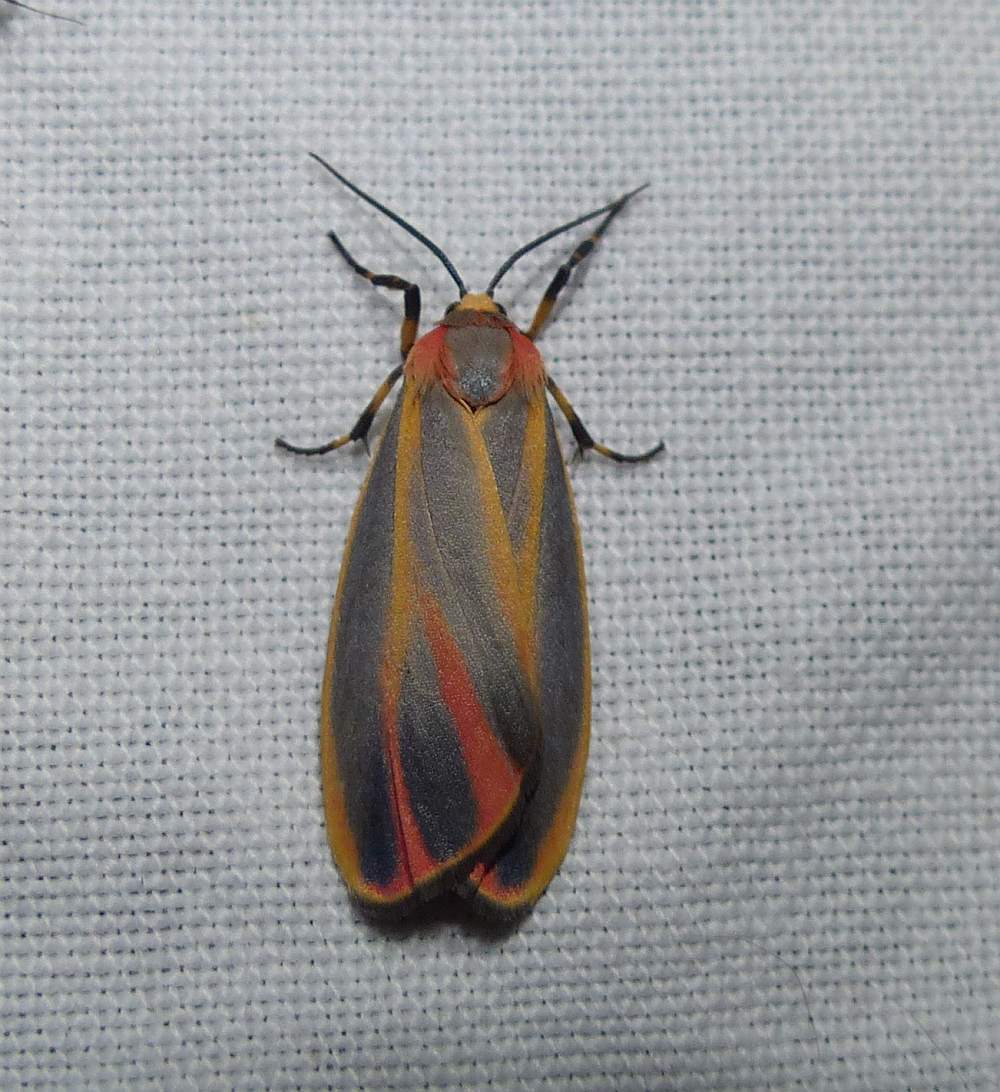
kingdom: Animalia
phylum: Arthropoda
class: Insecta
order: Lepidoptera
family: Erebidae
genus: Hypoprepia
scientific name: Hypoprepia fucosa
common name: Painted lichen moth
